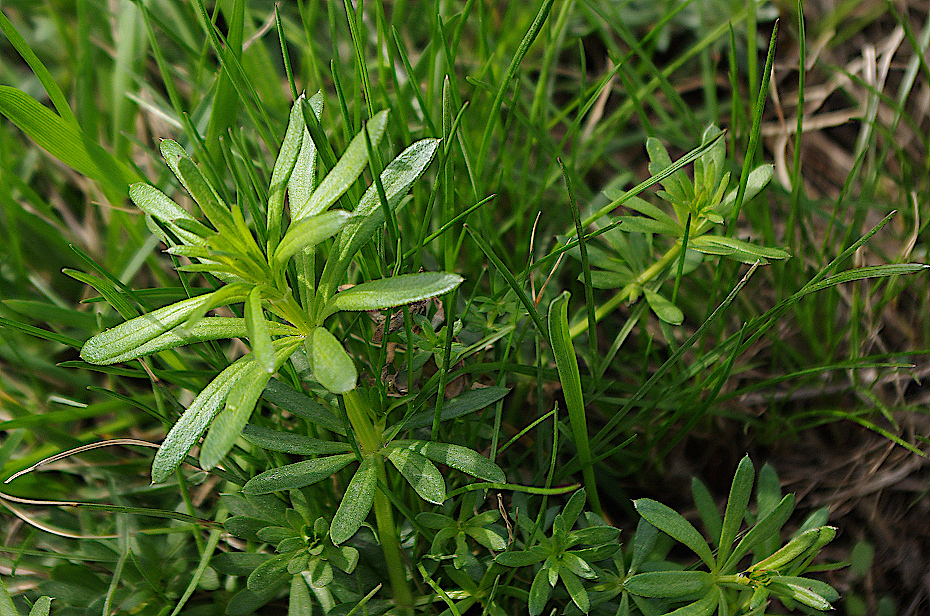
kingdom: Plantae
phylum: Tracheophyta
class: Magnoliopsida
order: Gentianales
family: Rubiaceae
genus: Galium
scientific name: Galium mollugo
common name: Hedge bedstraw
